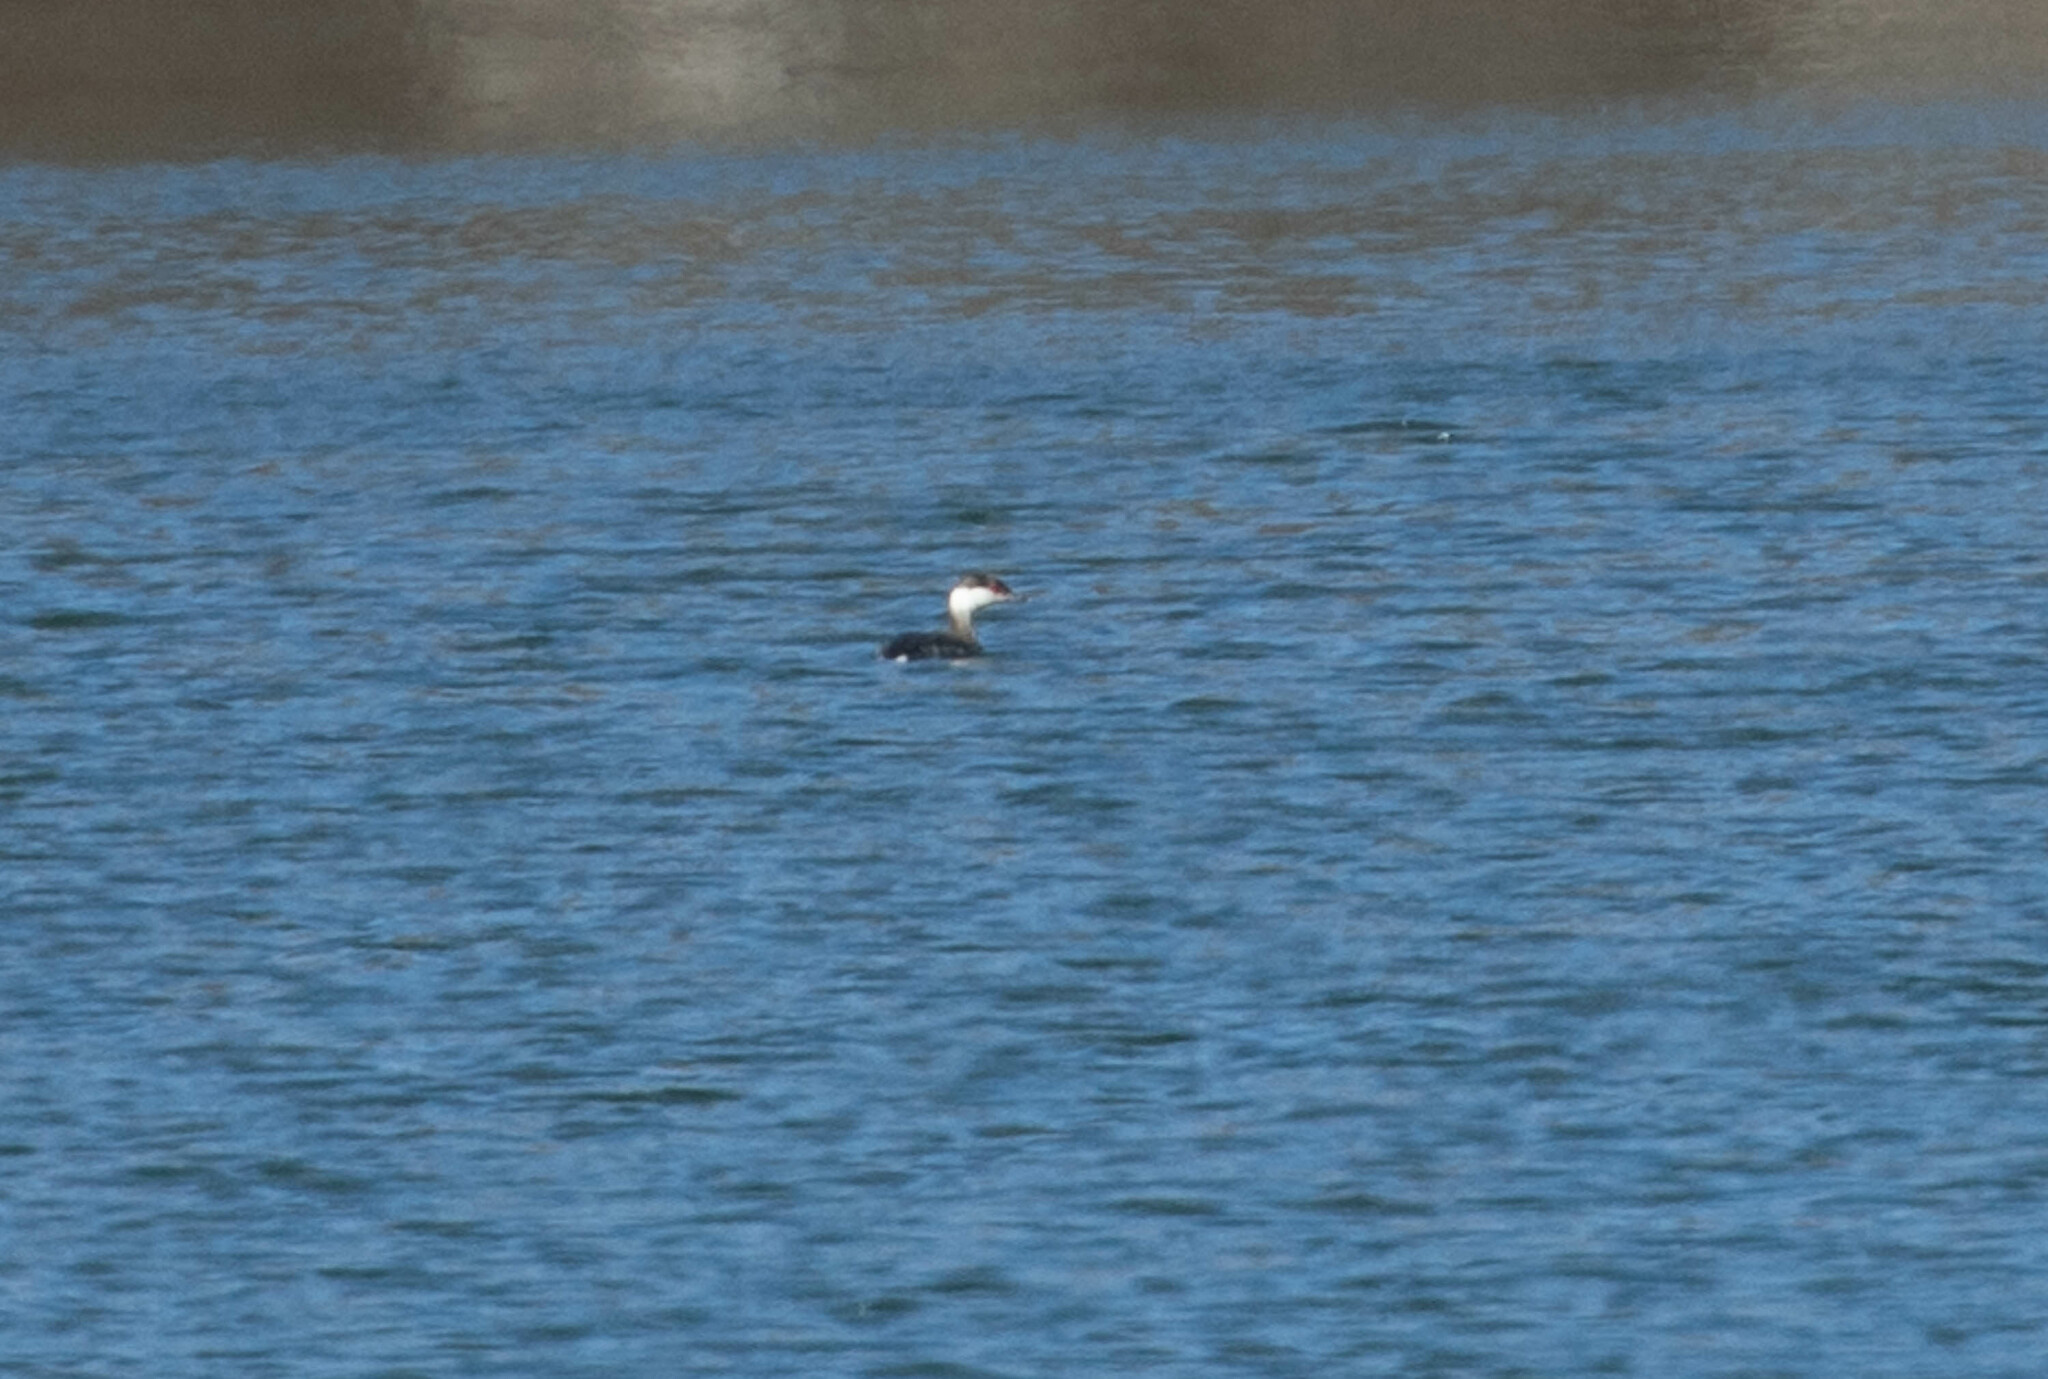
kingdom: Animalia
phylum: Chordata
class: Aves
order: Podicipediformes
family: Podicipedidae
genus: Podiceps
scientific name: Podiceps auritus
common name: Horned grebe
